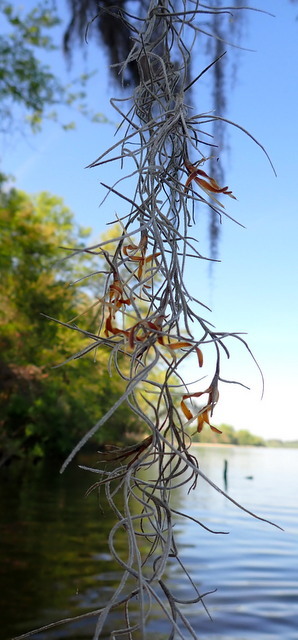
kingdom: Plantae
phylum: Tracheophyta
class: Liliopsida
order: Poales
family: Bromeliaceae
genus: Tillandsia
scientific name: Tillandsia usneoides
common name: Spanish moss
